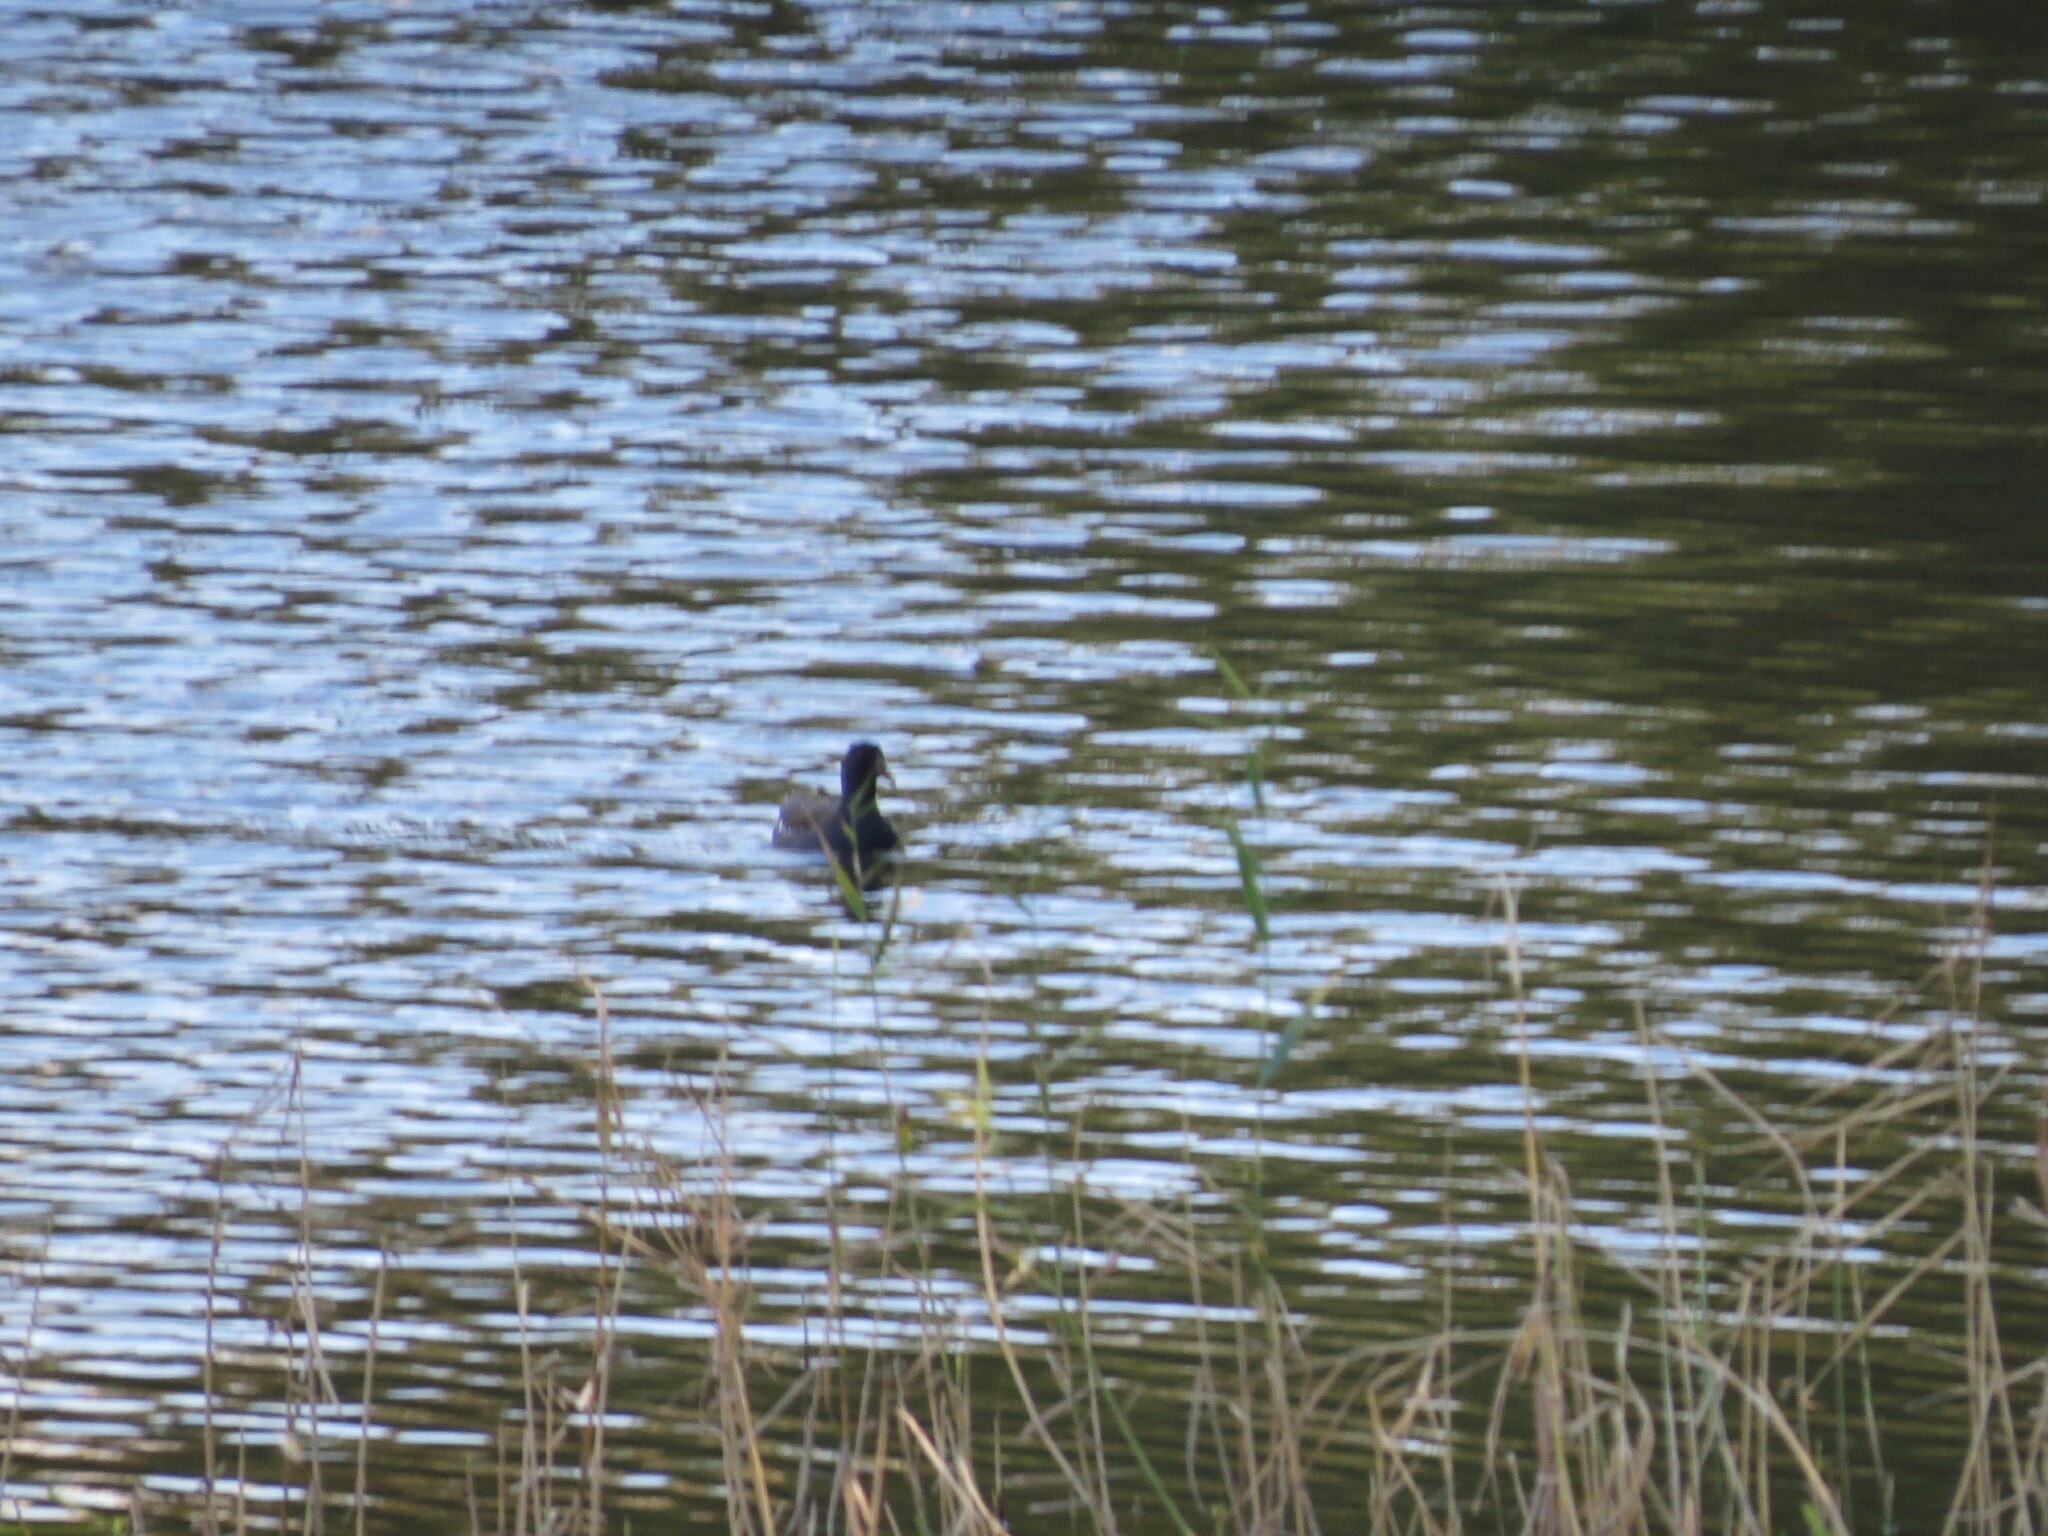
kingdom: Animalia
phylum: Chordata
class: Aves
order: Gruiformes
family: Rallidae
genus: Gallinula
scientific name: Gallinula chloropus
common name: Common moorhen
